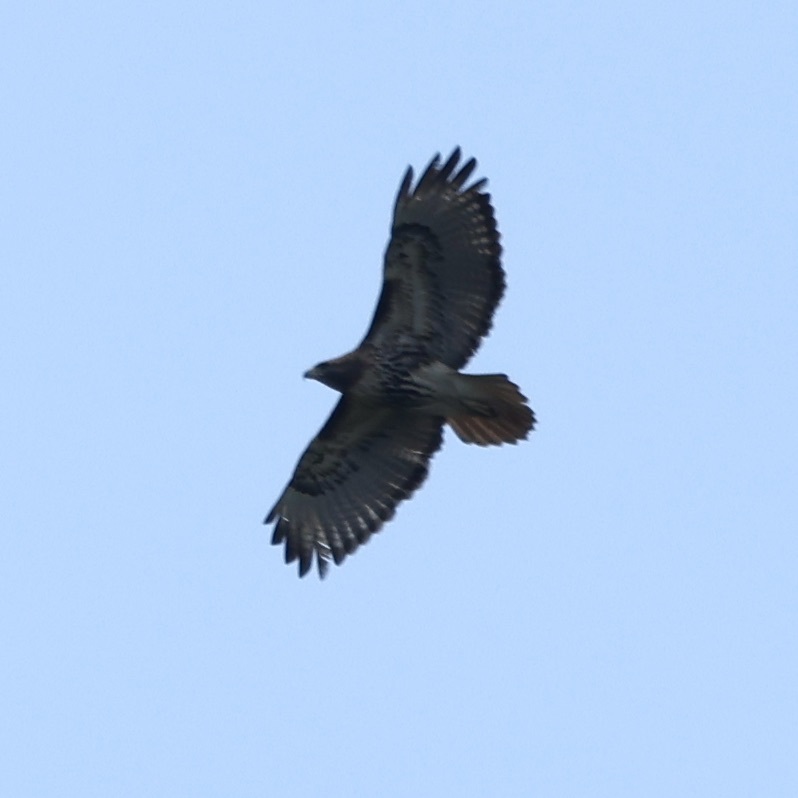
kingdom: Animalia
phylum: Chordata
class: Aves
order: Accipitriformes
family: Accipitridae
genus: Buteo
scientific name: Buteo jamaicensis
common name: Red-tailed hawk
